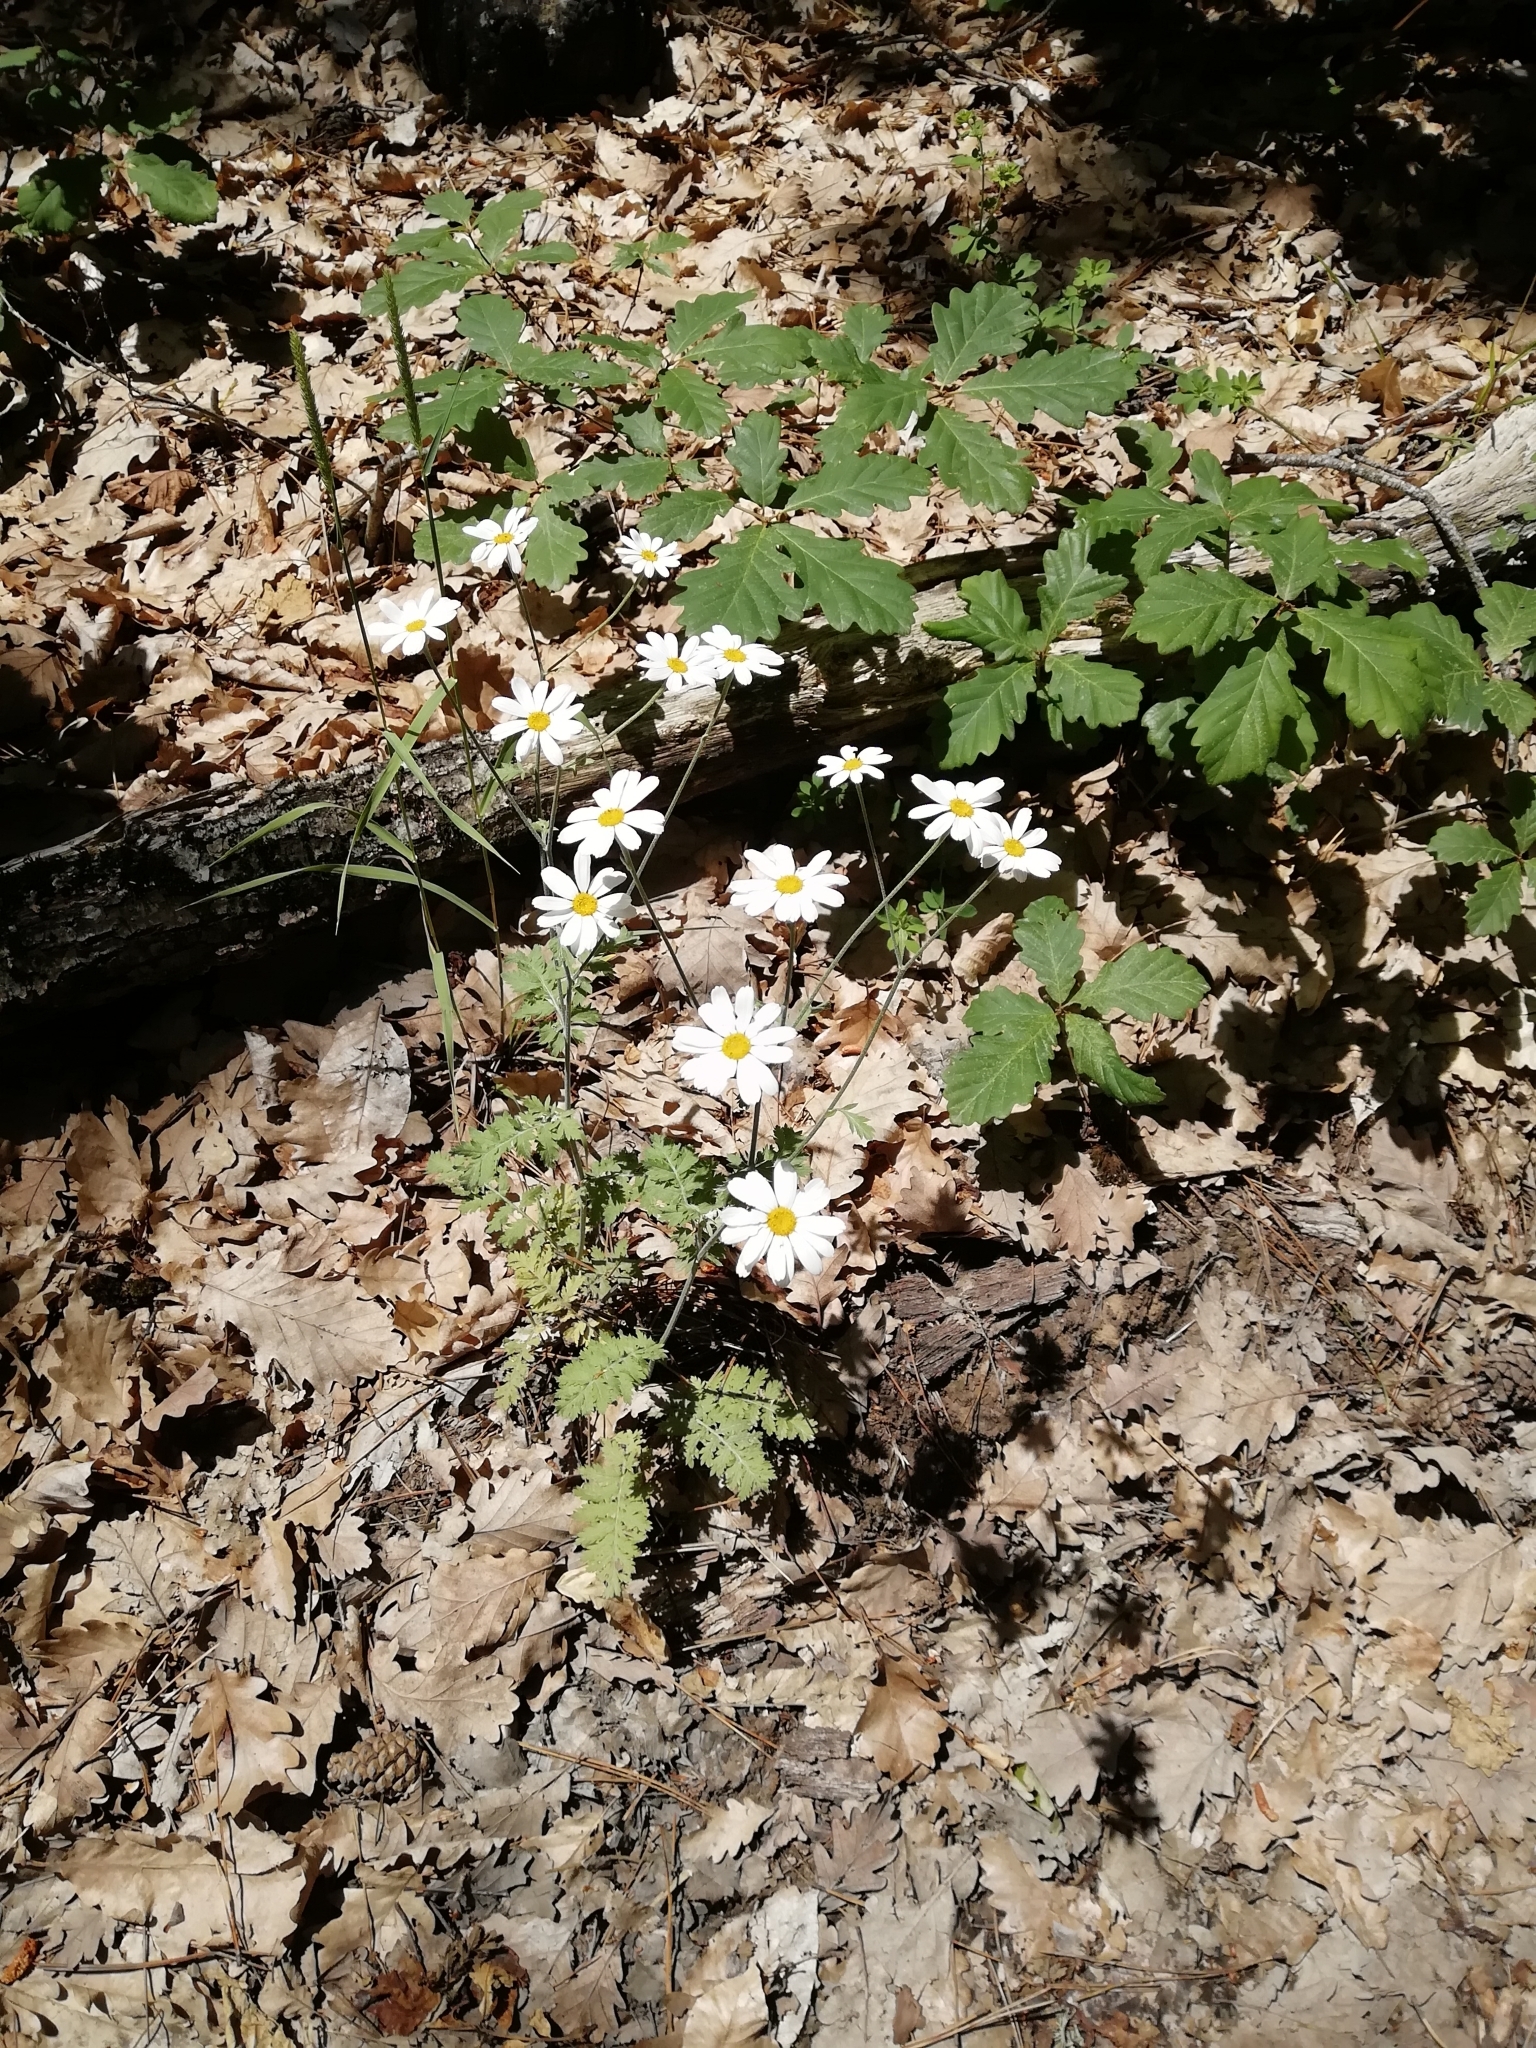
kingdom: Plantae
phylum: Tracheophyta
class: Magnoliopsida
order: Asterales
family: Asteraceae
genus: Tanacetum
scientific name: Tanacetum poteriifolium
